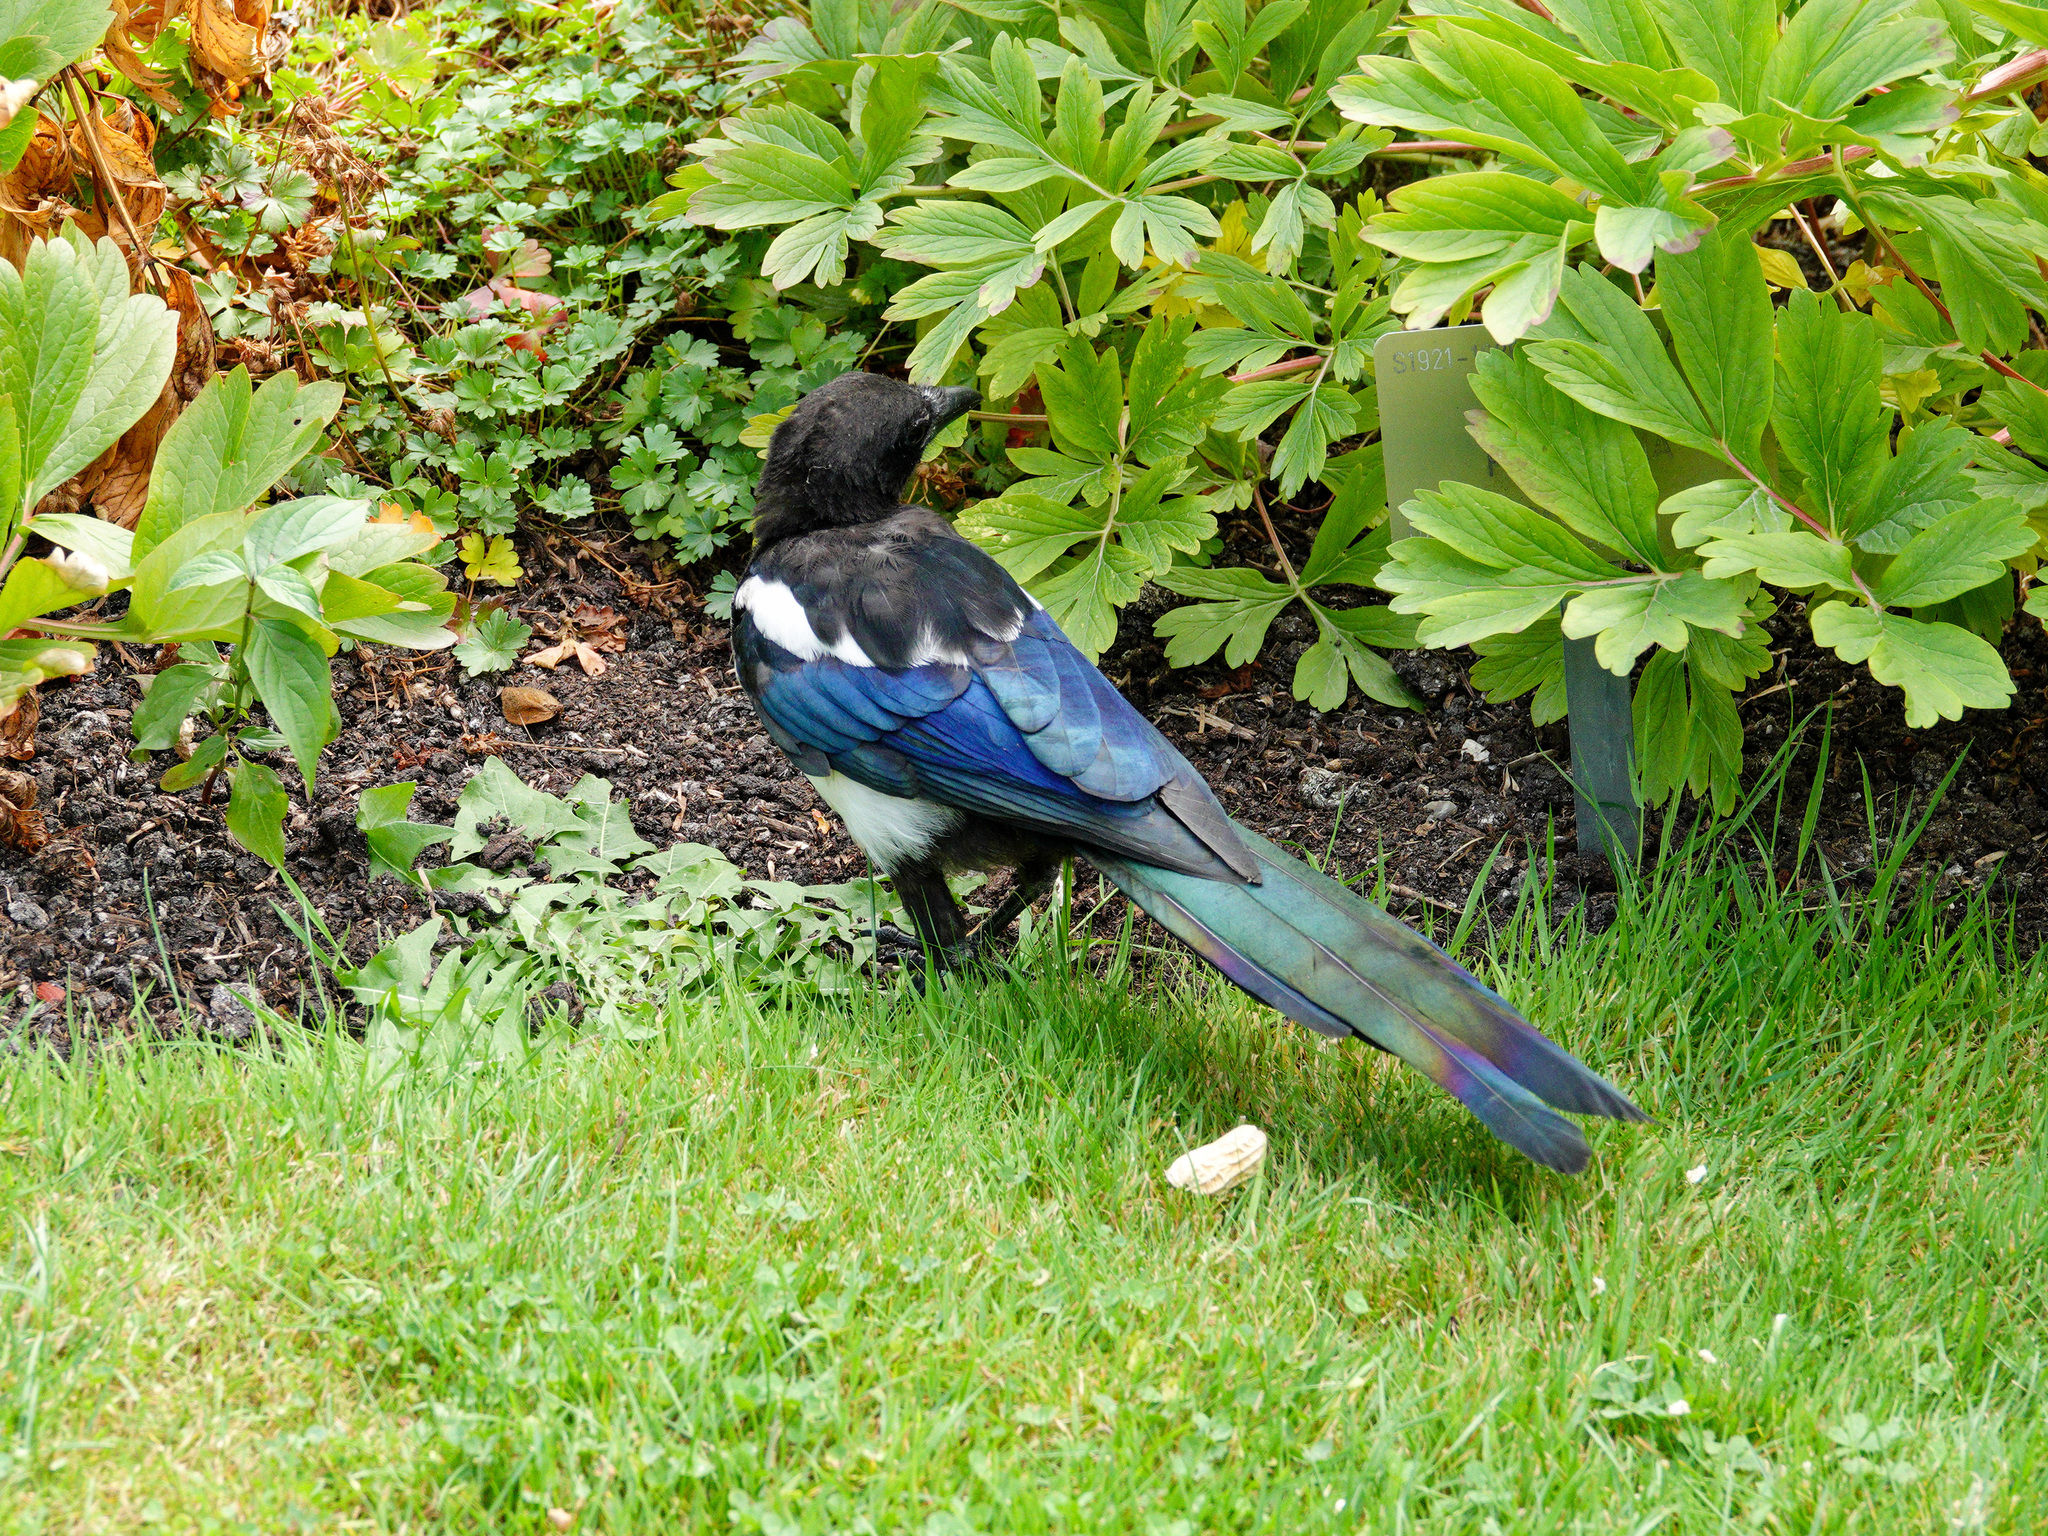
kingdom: Animalia
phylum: Chordata
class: Aves
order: Passeriformes
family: Corvidae
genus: Pica
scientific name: Pica pica
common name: Eurasian magpie
